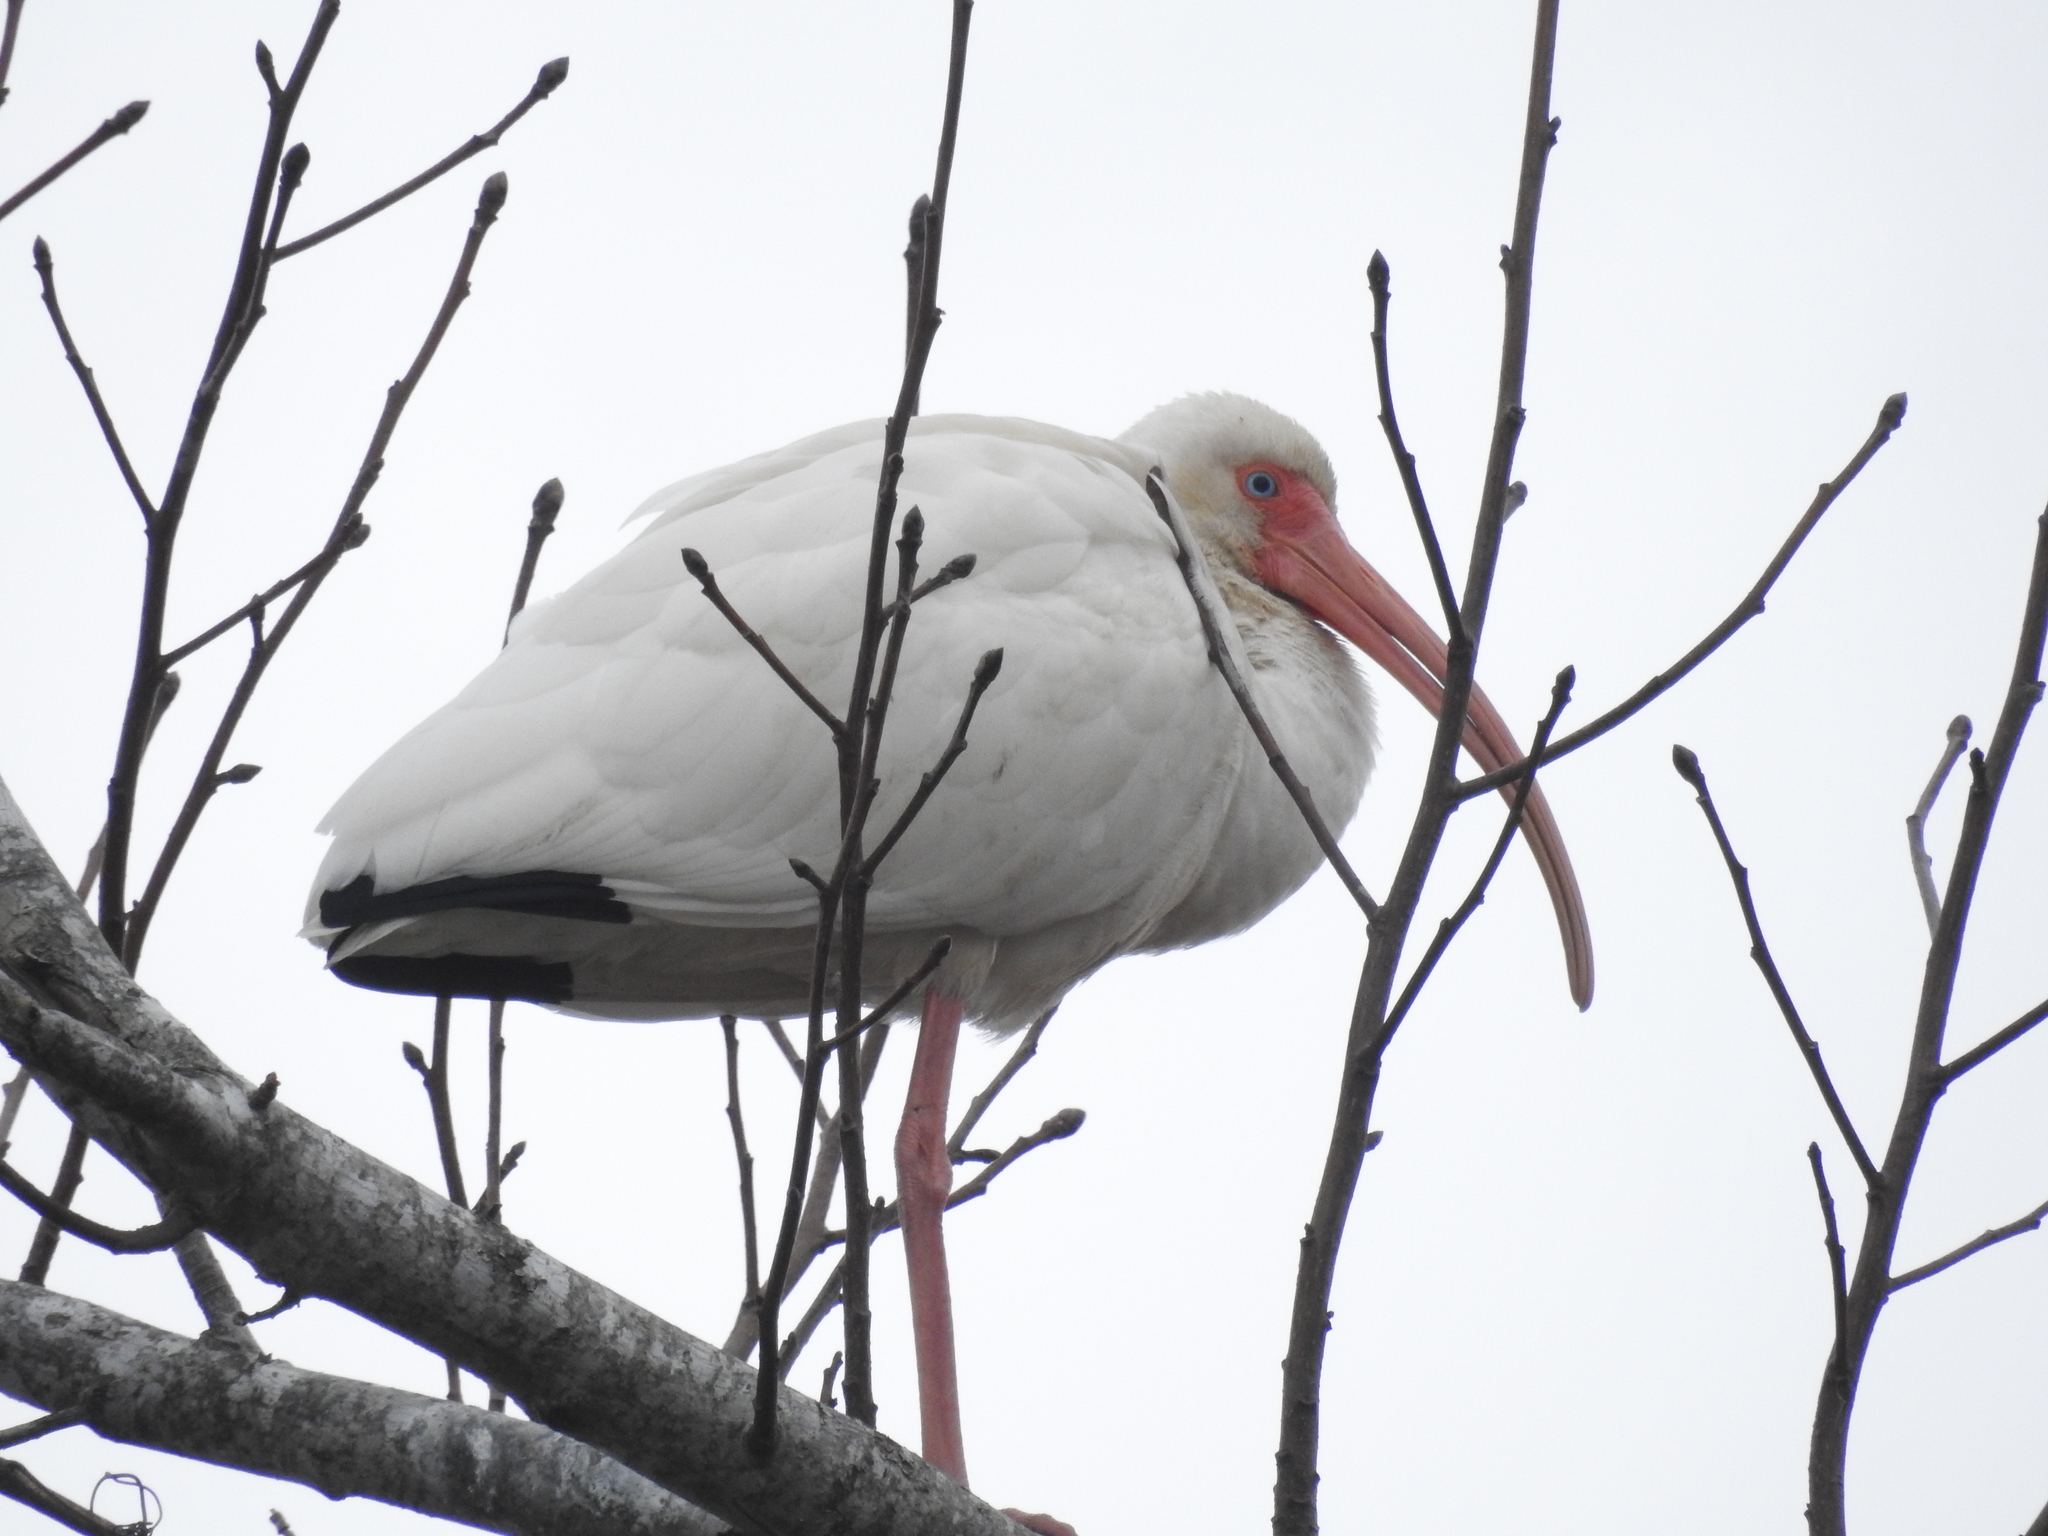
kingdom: Animalia
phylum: Chordata
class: Aves
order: Pelecaniformes
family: Threskiornithidae
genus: Eudocimus
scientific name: Eudocimus albus
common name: White ibis
